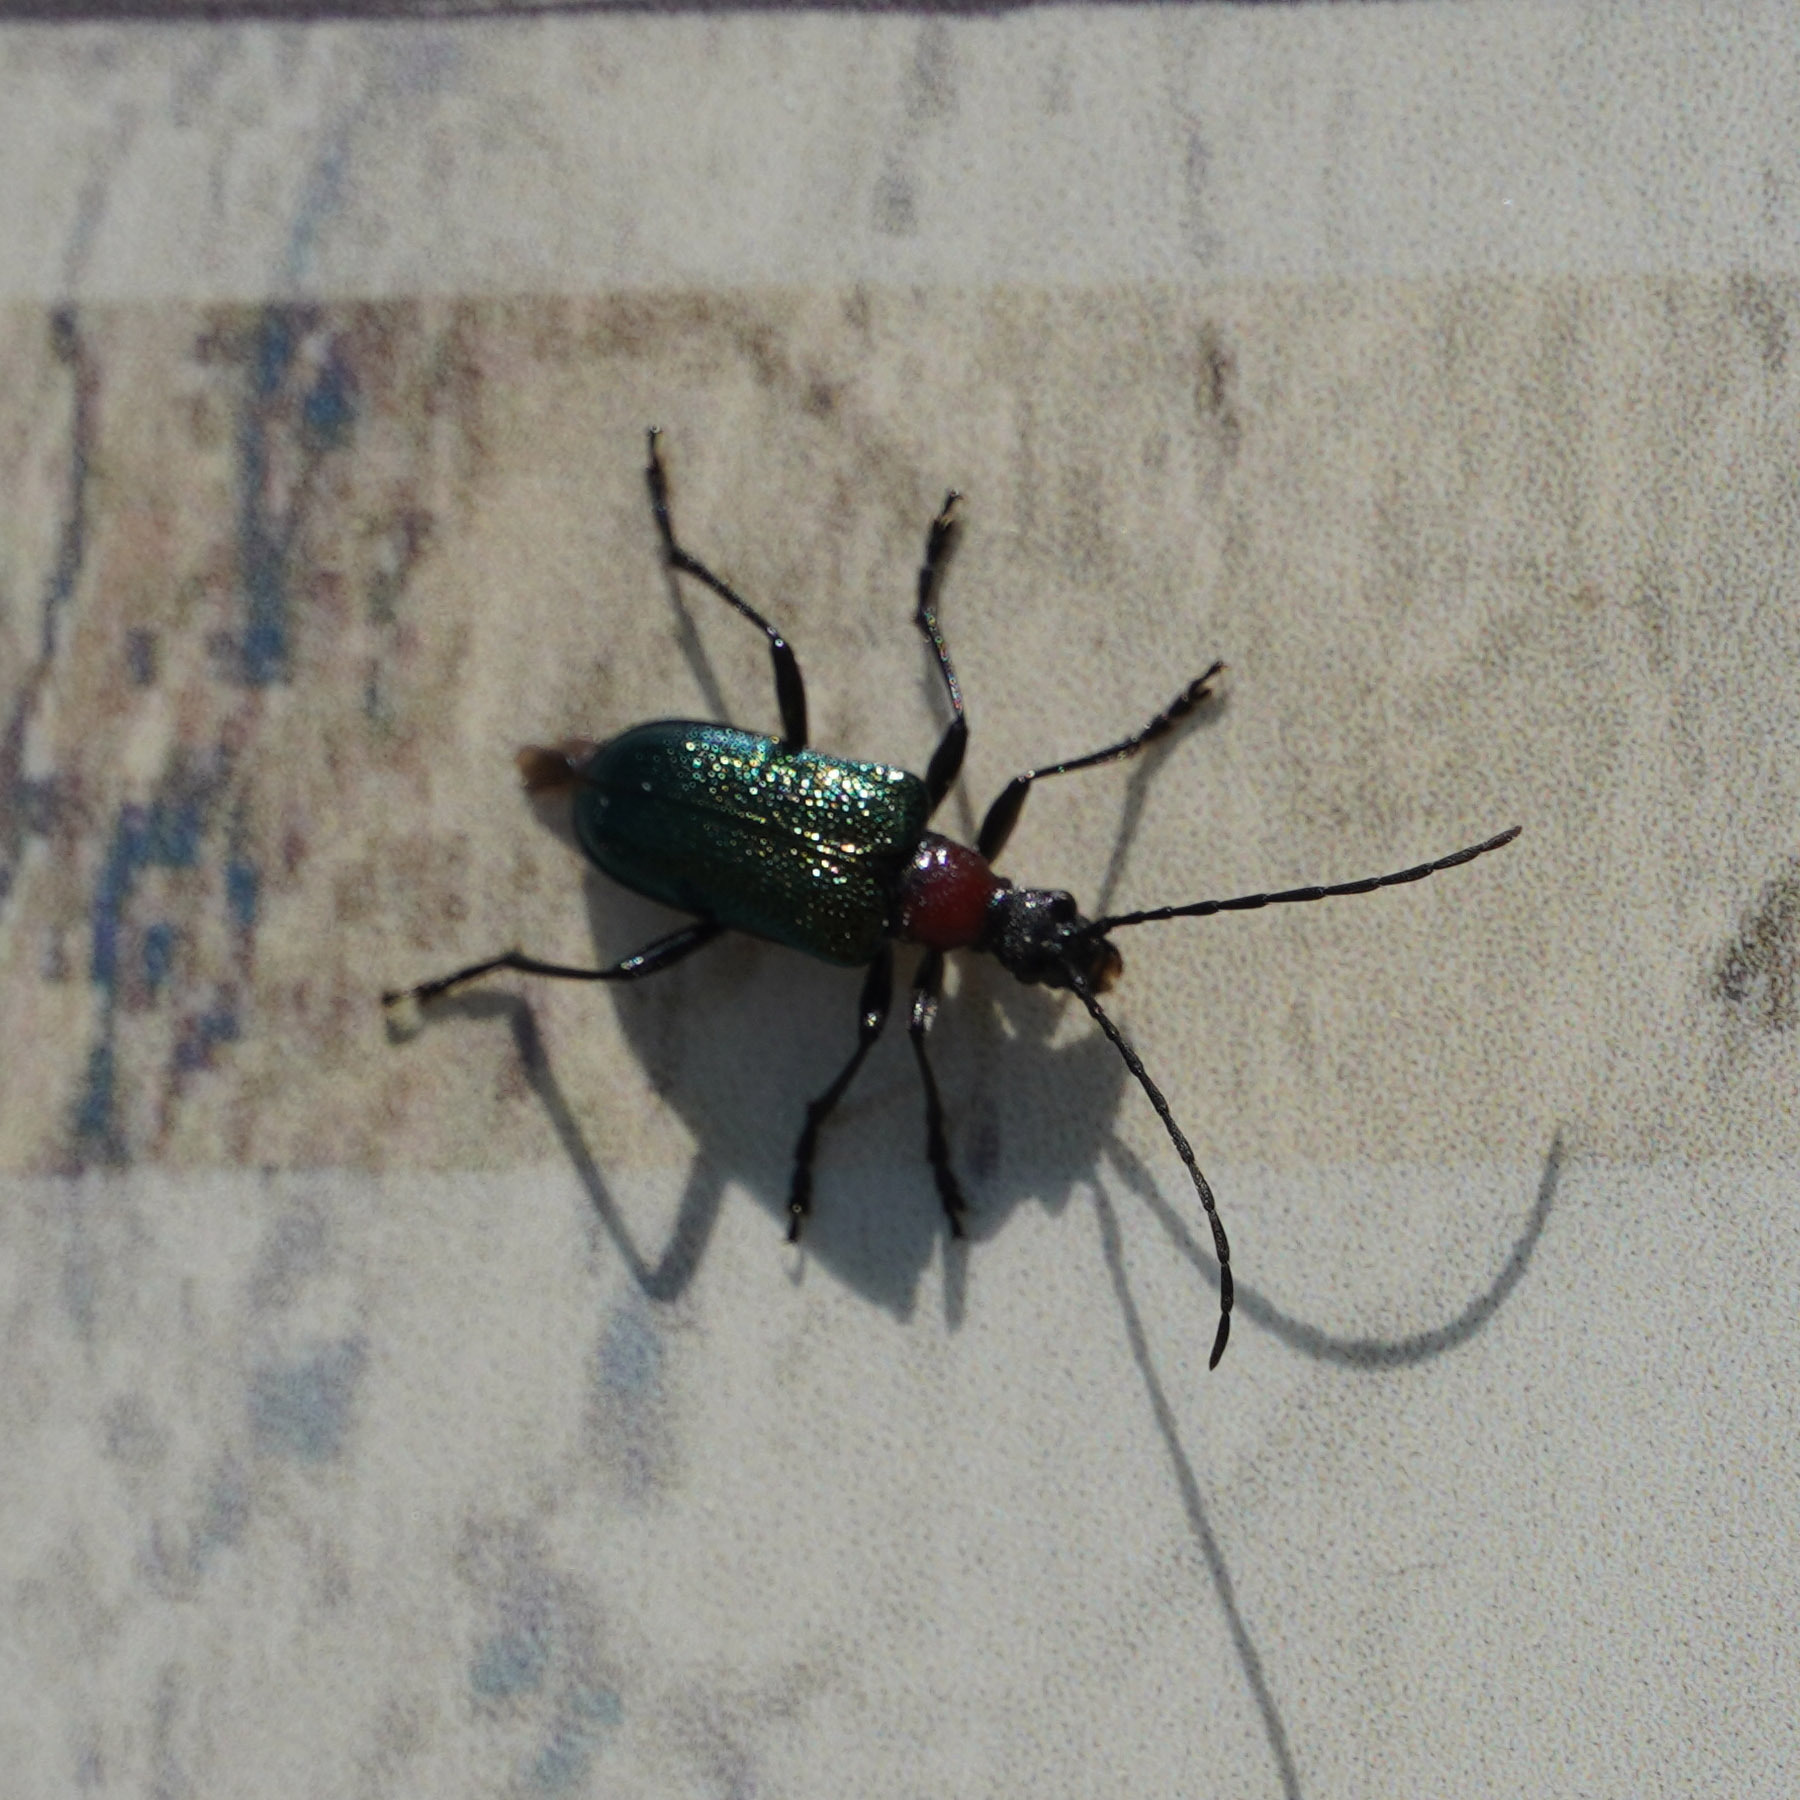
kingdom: Animalia
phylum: Arthropoda
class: Insecta
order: Coleoptera
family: Cerambycidae
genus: Gaurotes
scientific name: Gaurotes virginea
